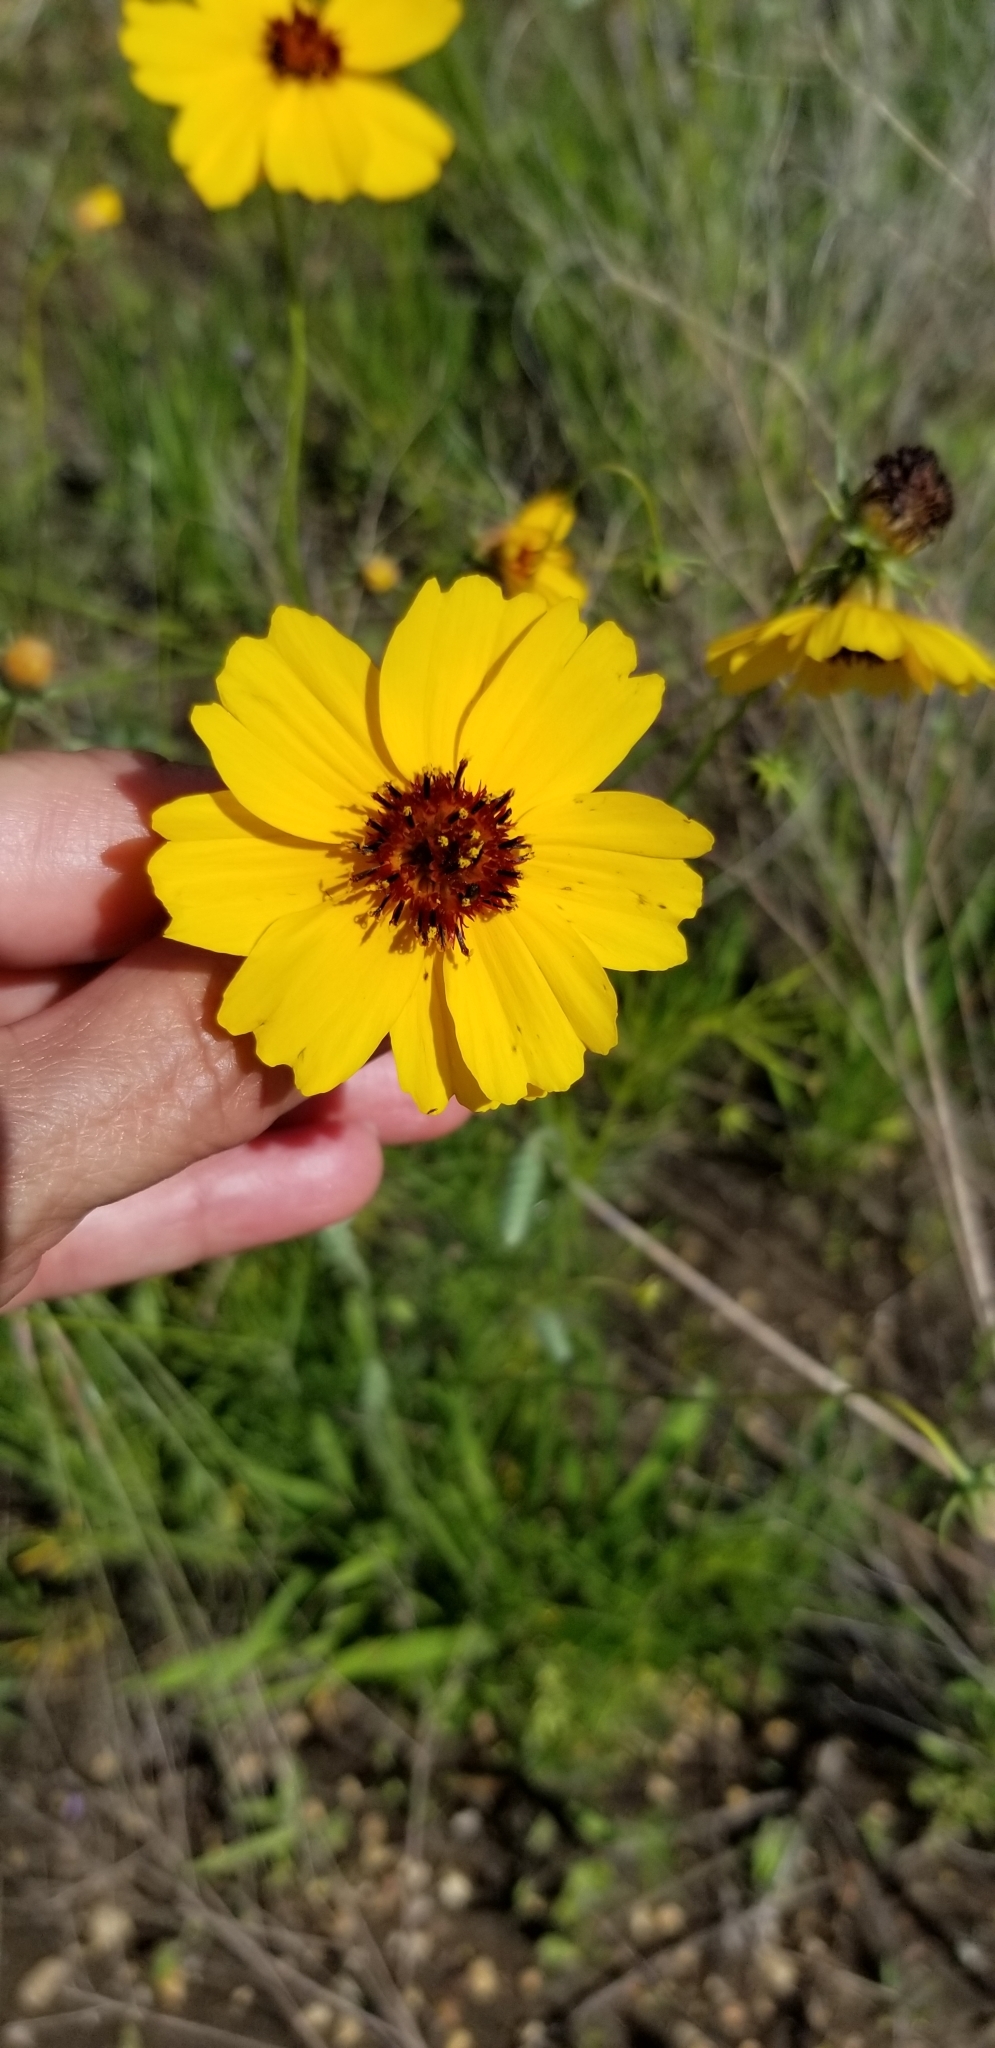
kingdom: Plantae
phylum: Tracheophyta
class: Magnoliopsida
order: Asterales
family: Asteraceae
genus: Thelesperma
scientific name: Thelesperma filifolium
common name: Stiff greenthread
